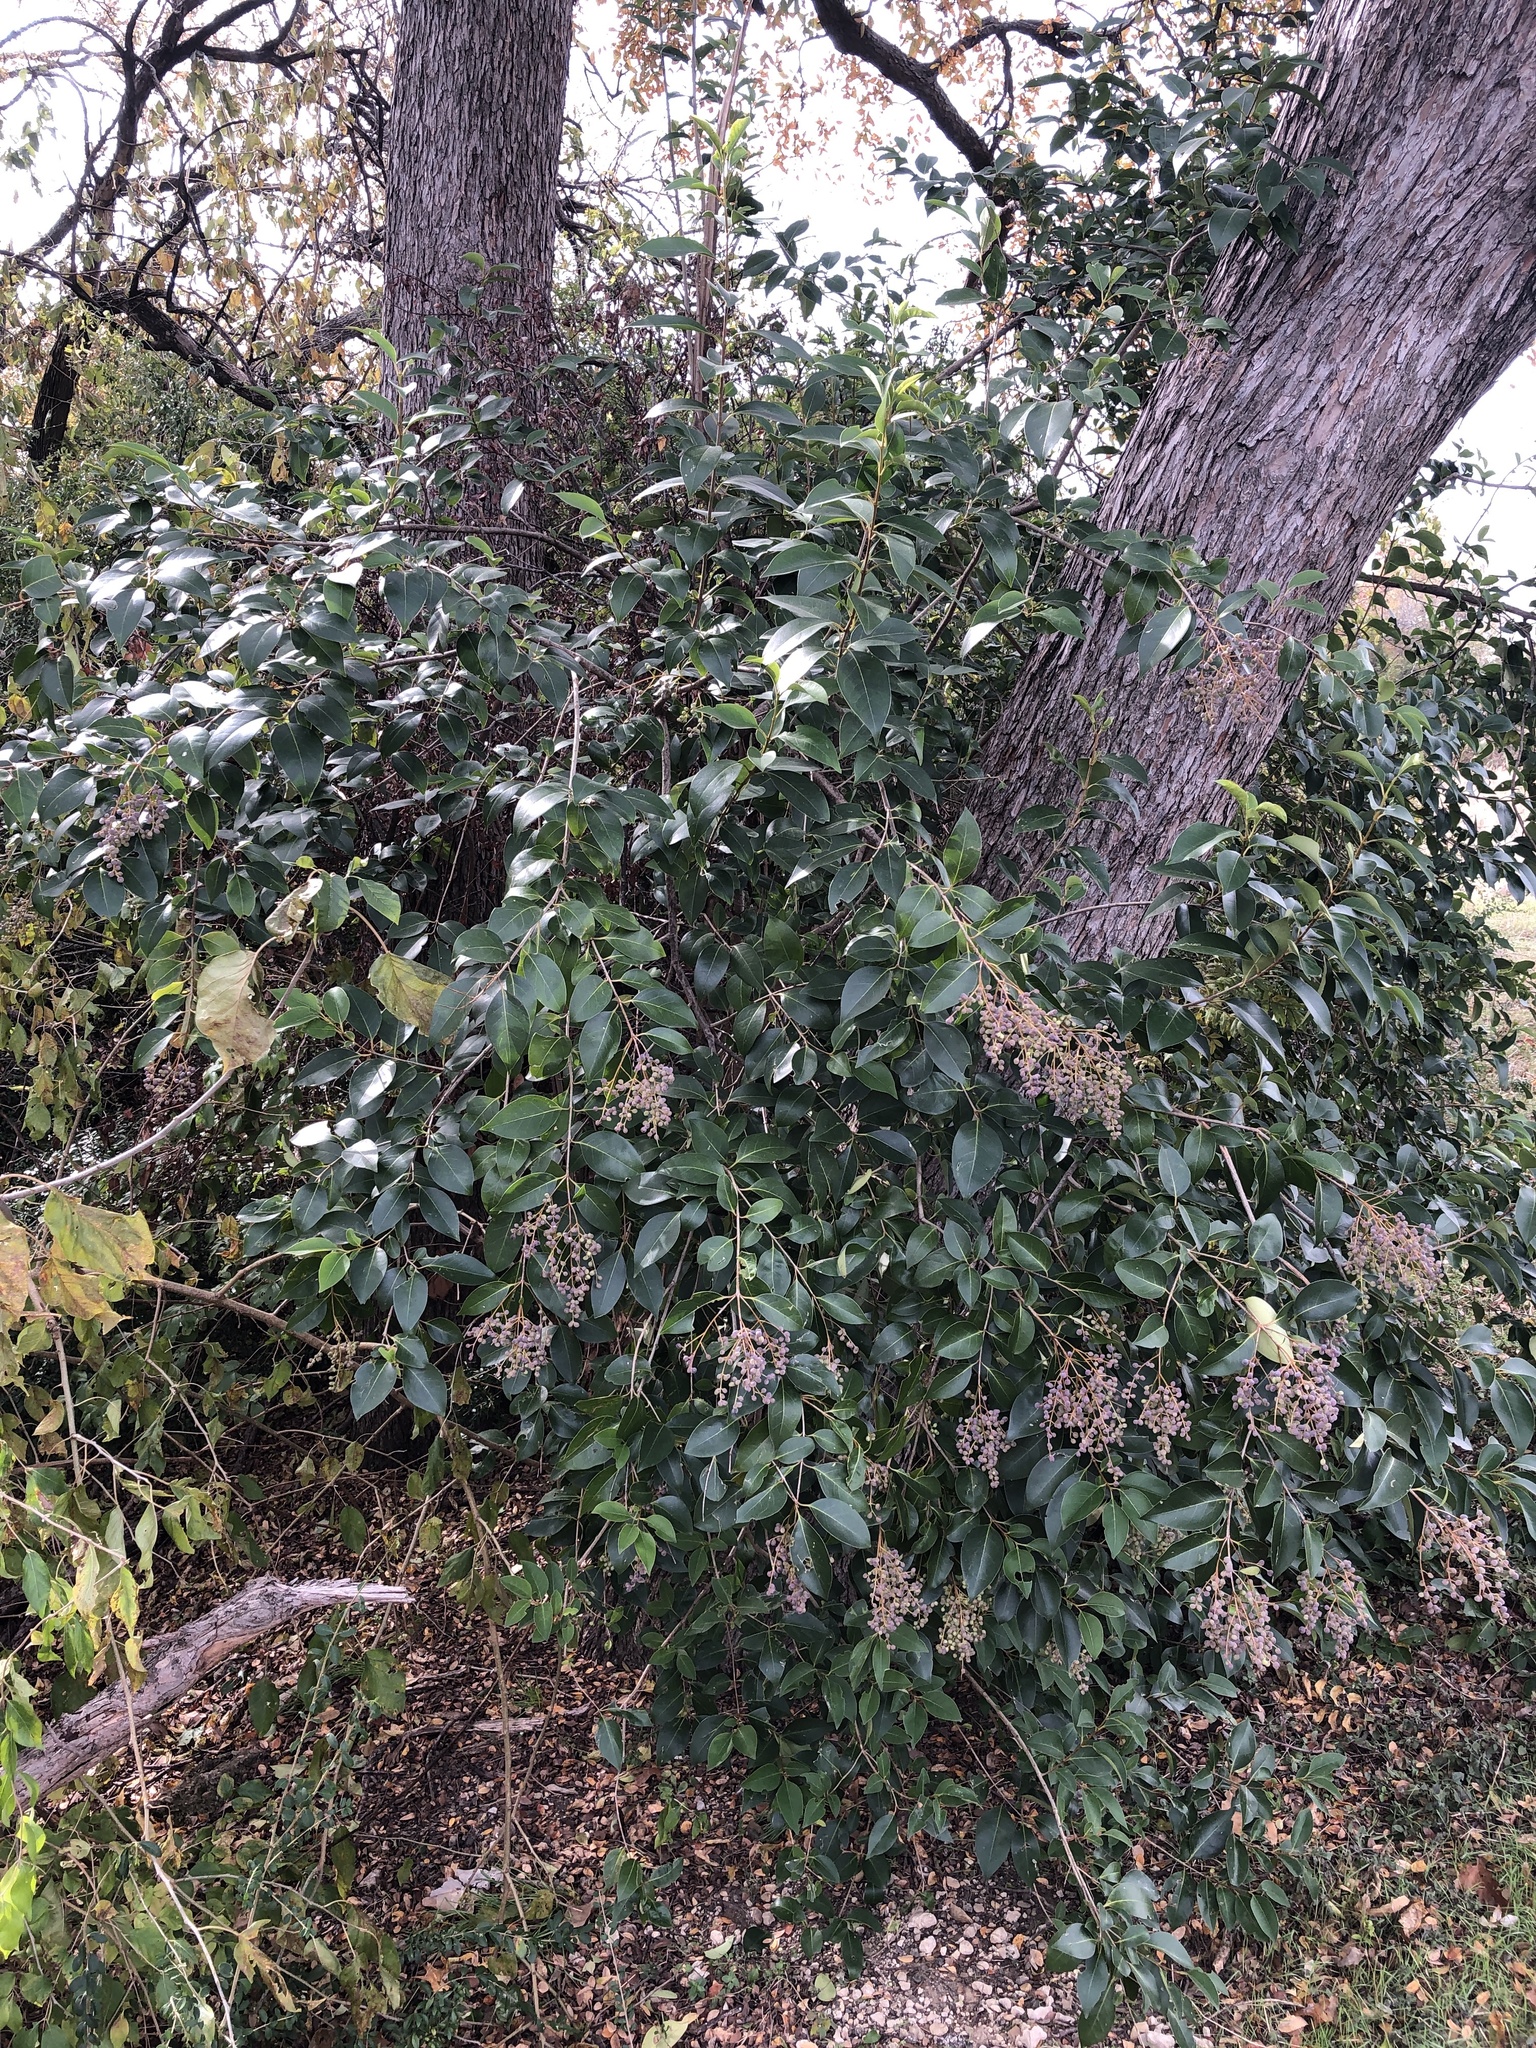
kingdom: Plantae
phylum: Tracheophyta
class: Magnoliopsida
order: Lamiales
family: Oleaceae
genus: Ligustrum
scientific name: Ligustrum lucidum
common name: Glossy privet
